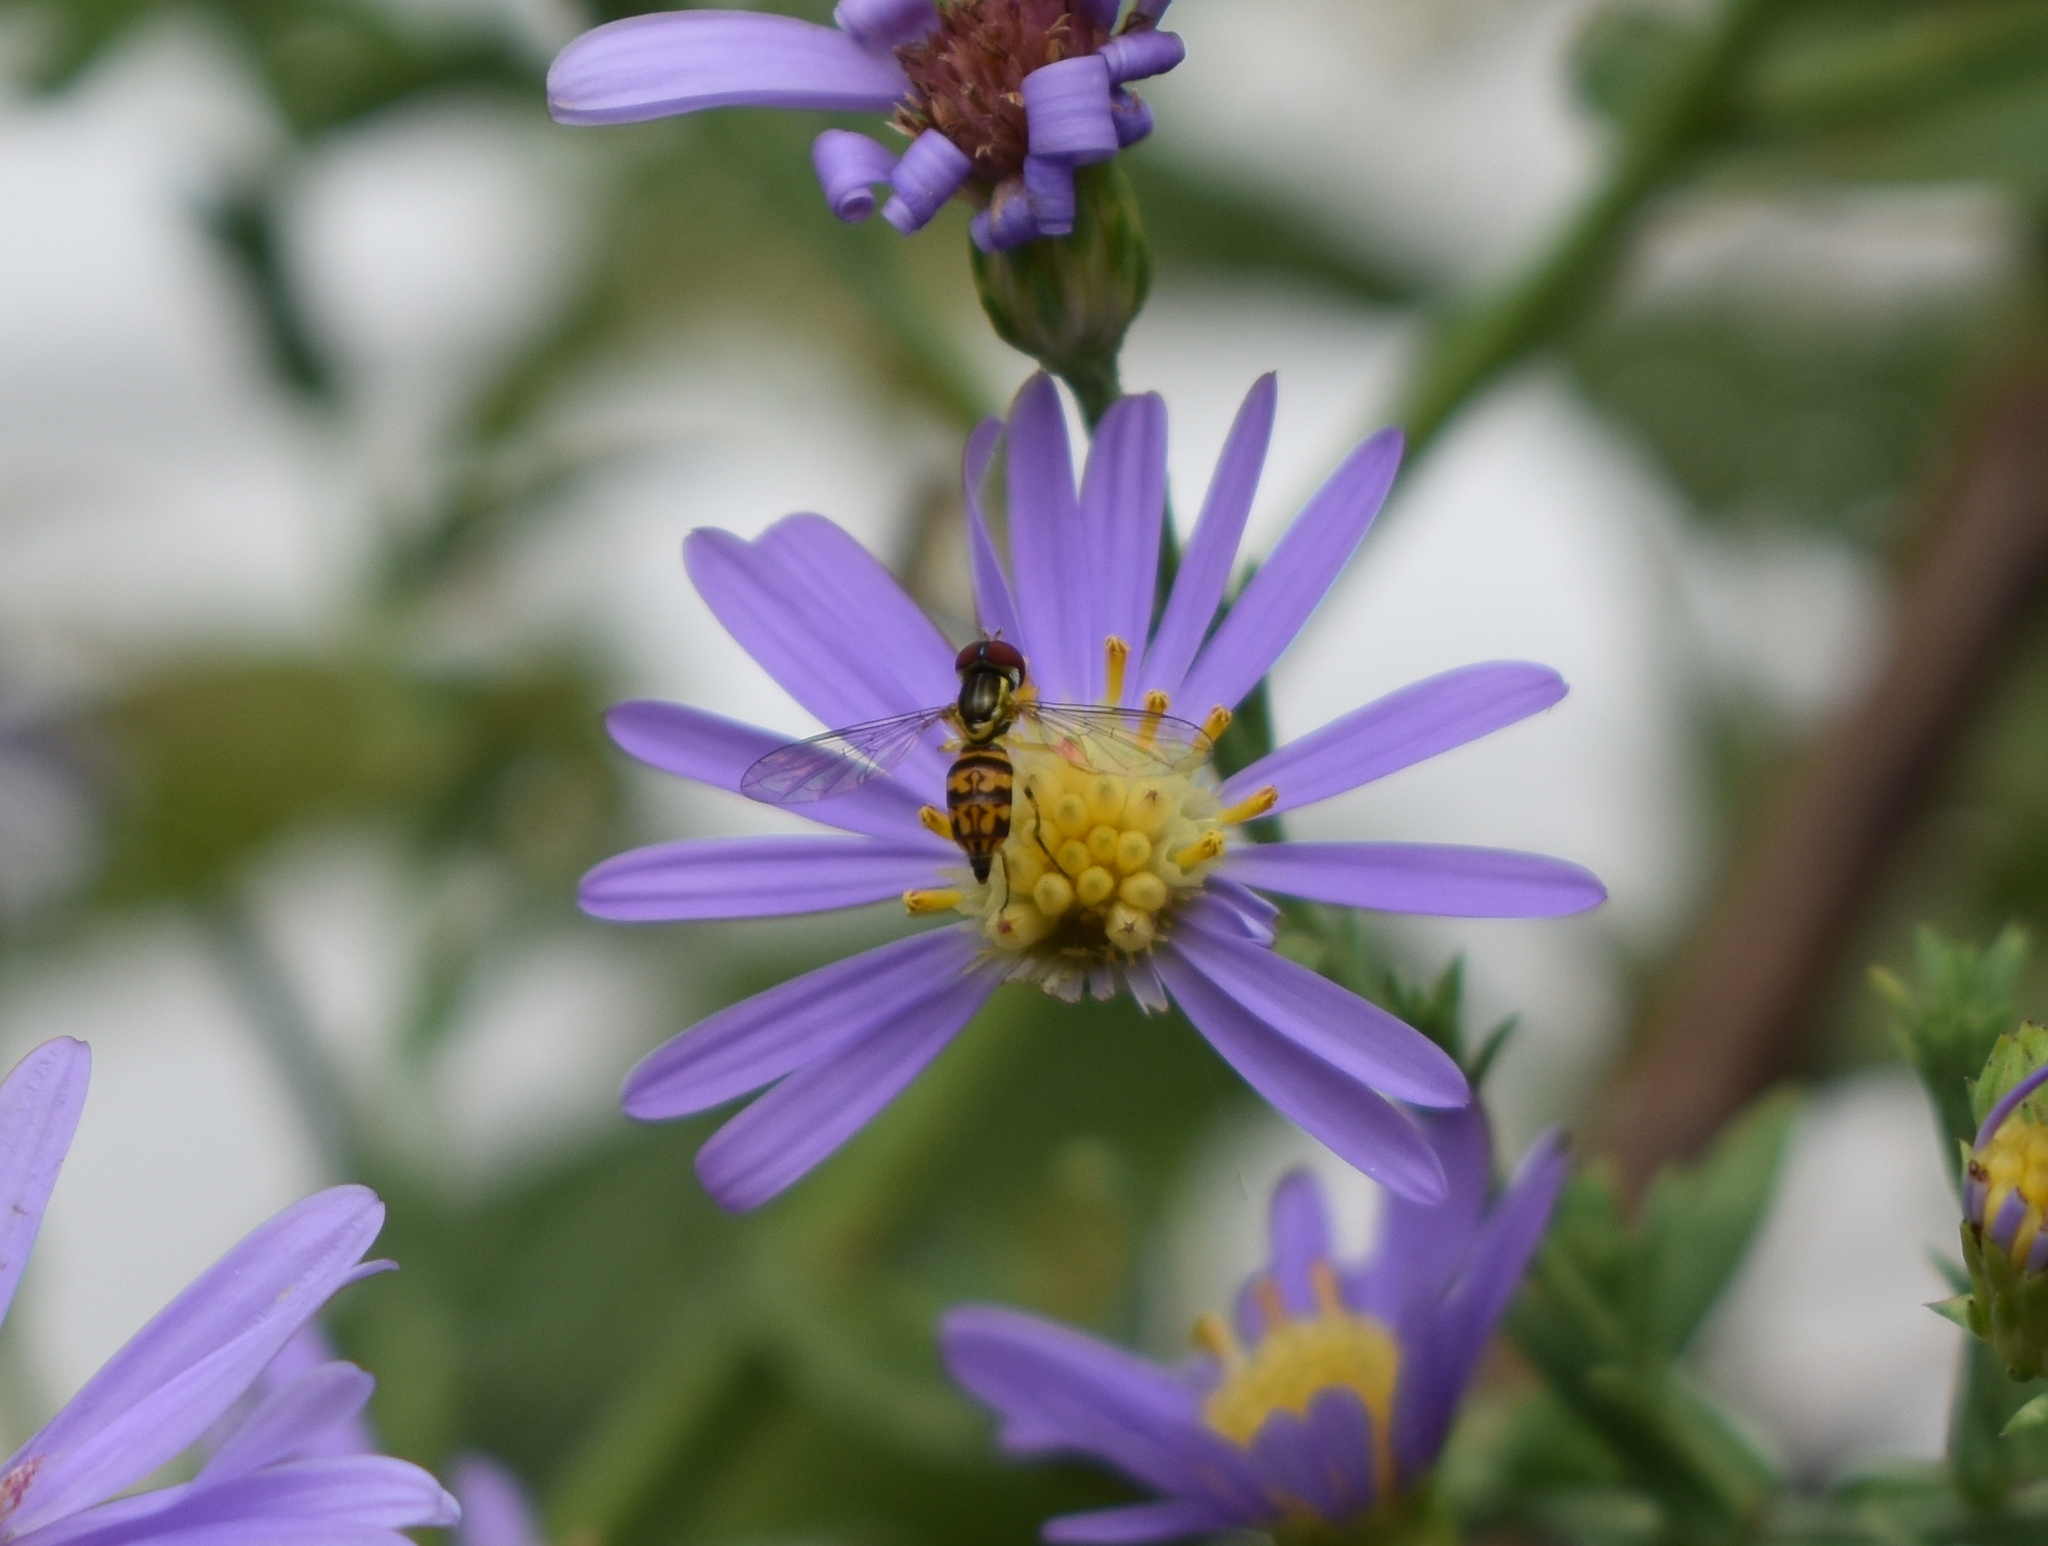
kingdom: Animalia
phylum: Arthropoda
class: Insecta
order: Diptera
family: Syrphidae
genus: Toxomerus
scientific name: Toxomerus geminatus
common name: Eastern calligrapher
